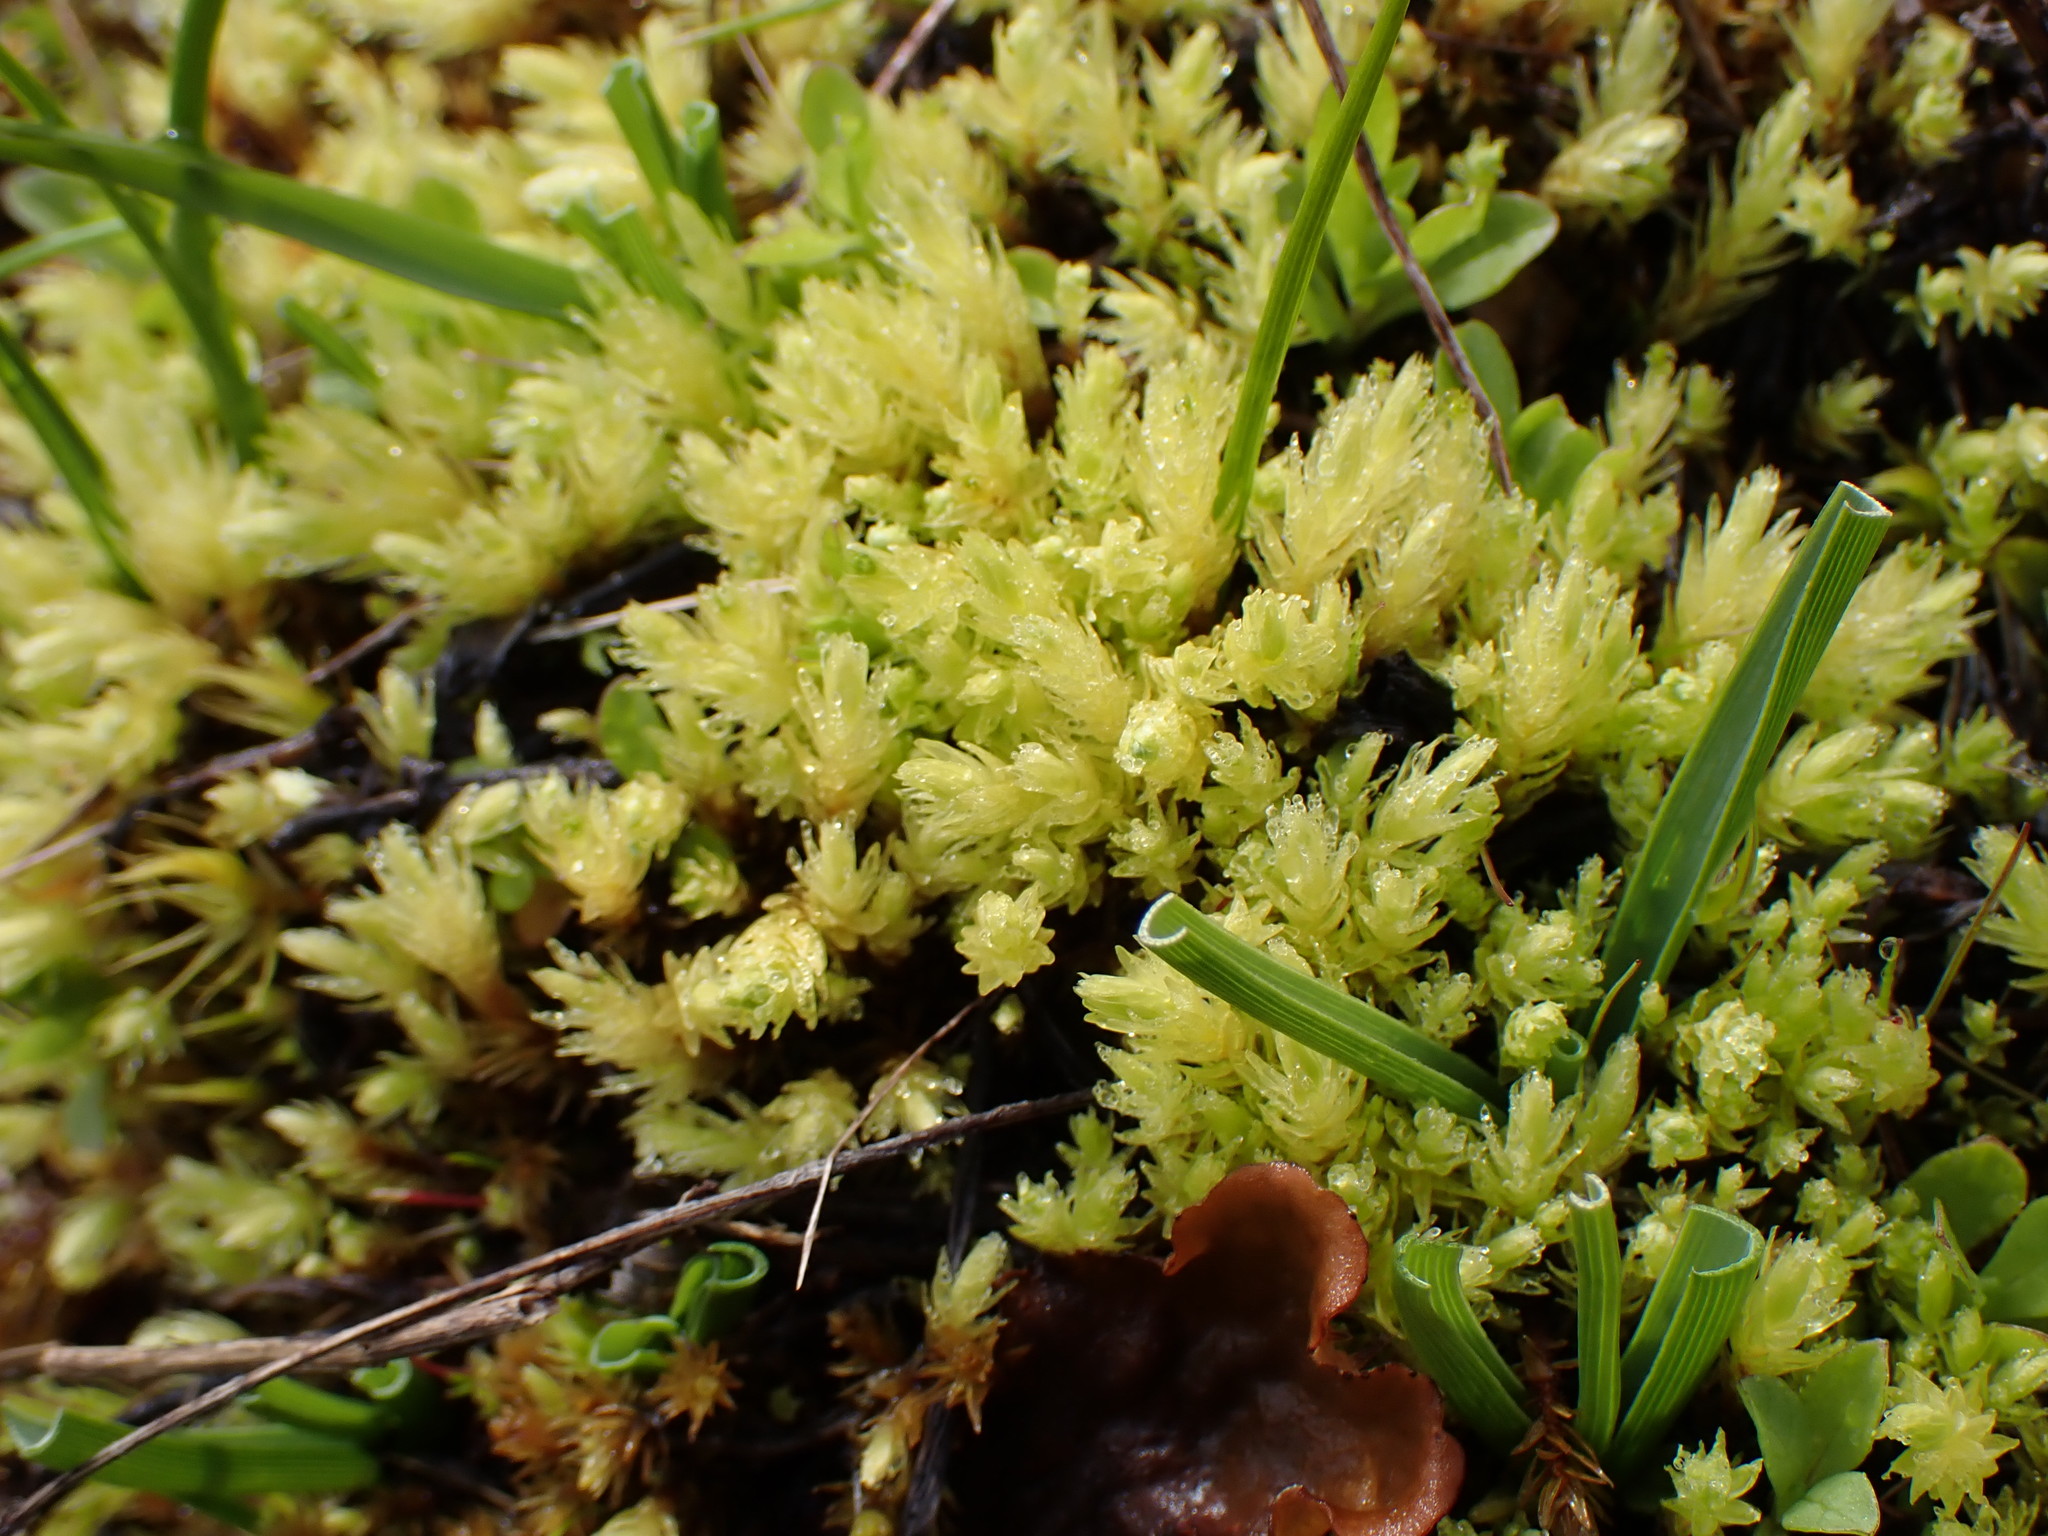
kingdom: Plantae
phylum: Bryophyta
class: Bryopsida
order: Aulacomniales
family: Aulacomniaceae
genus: Aulacomnium
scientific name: Aulacomnium palustre
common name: Bog groove-moss
